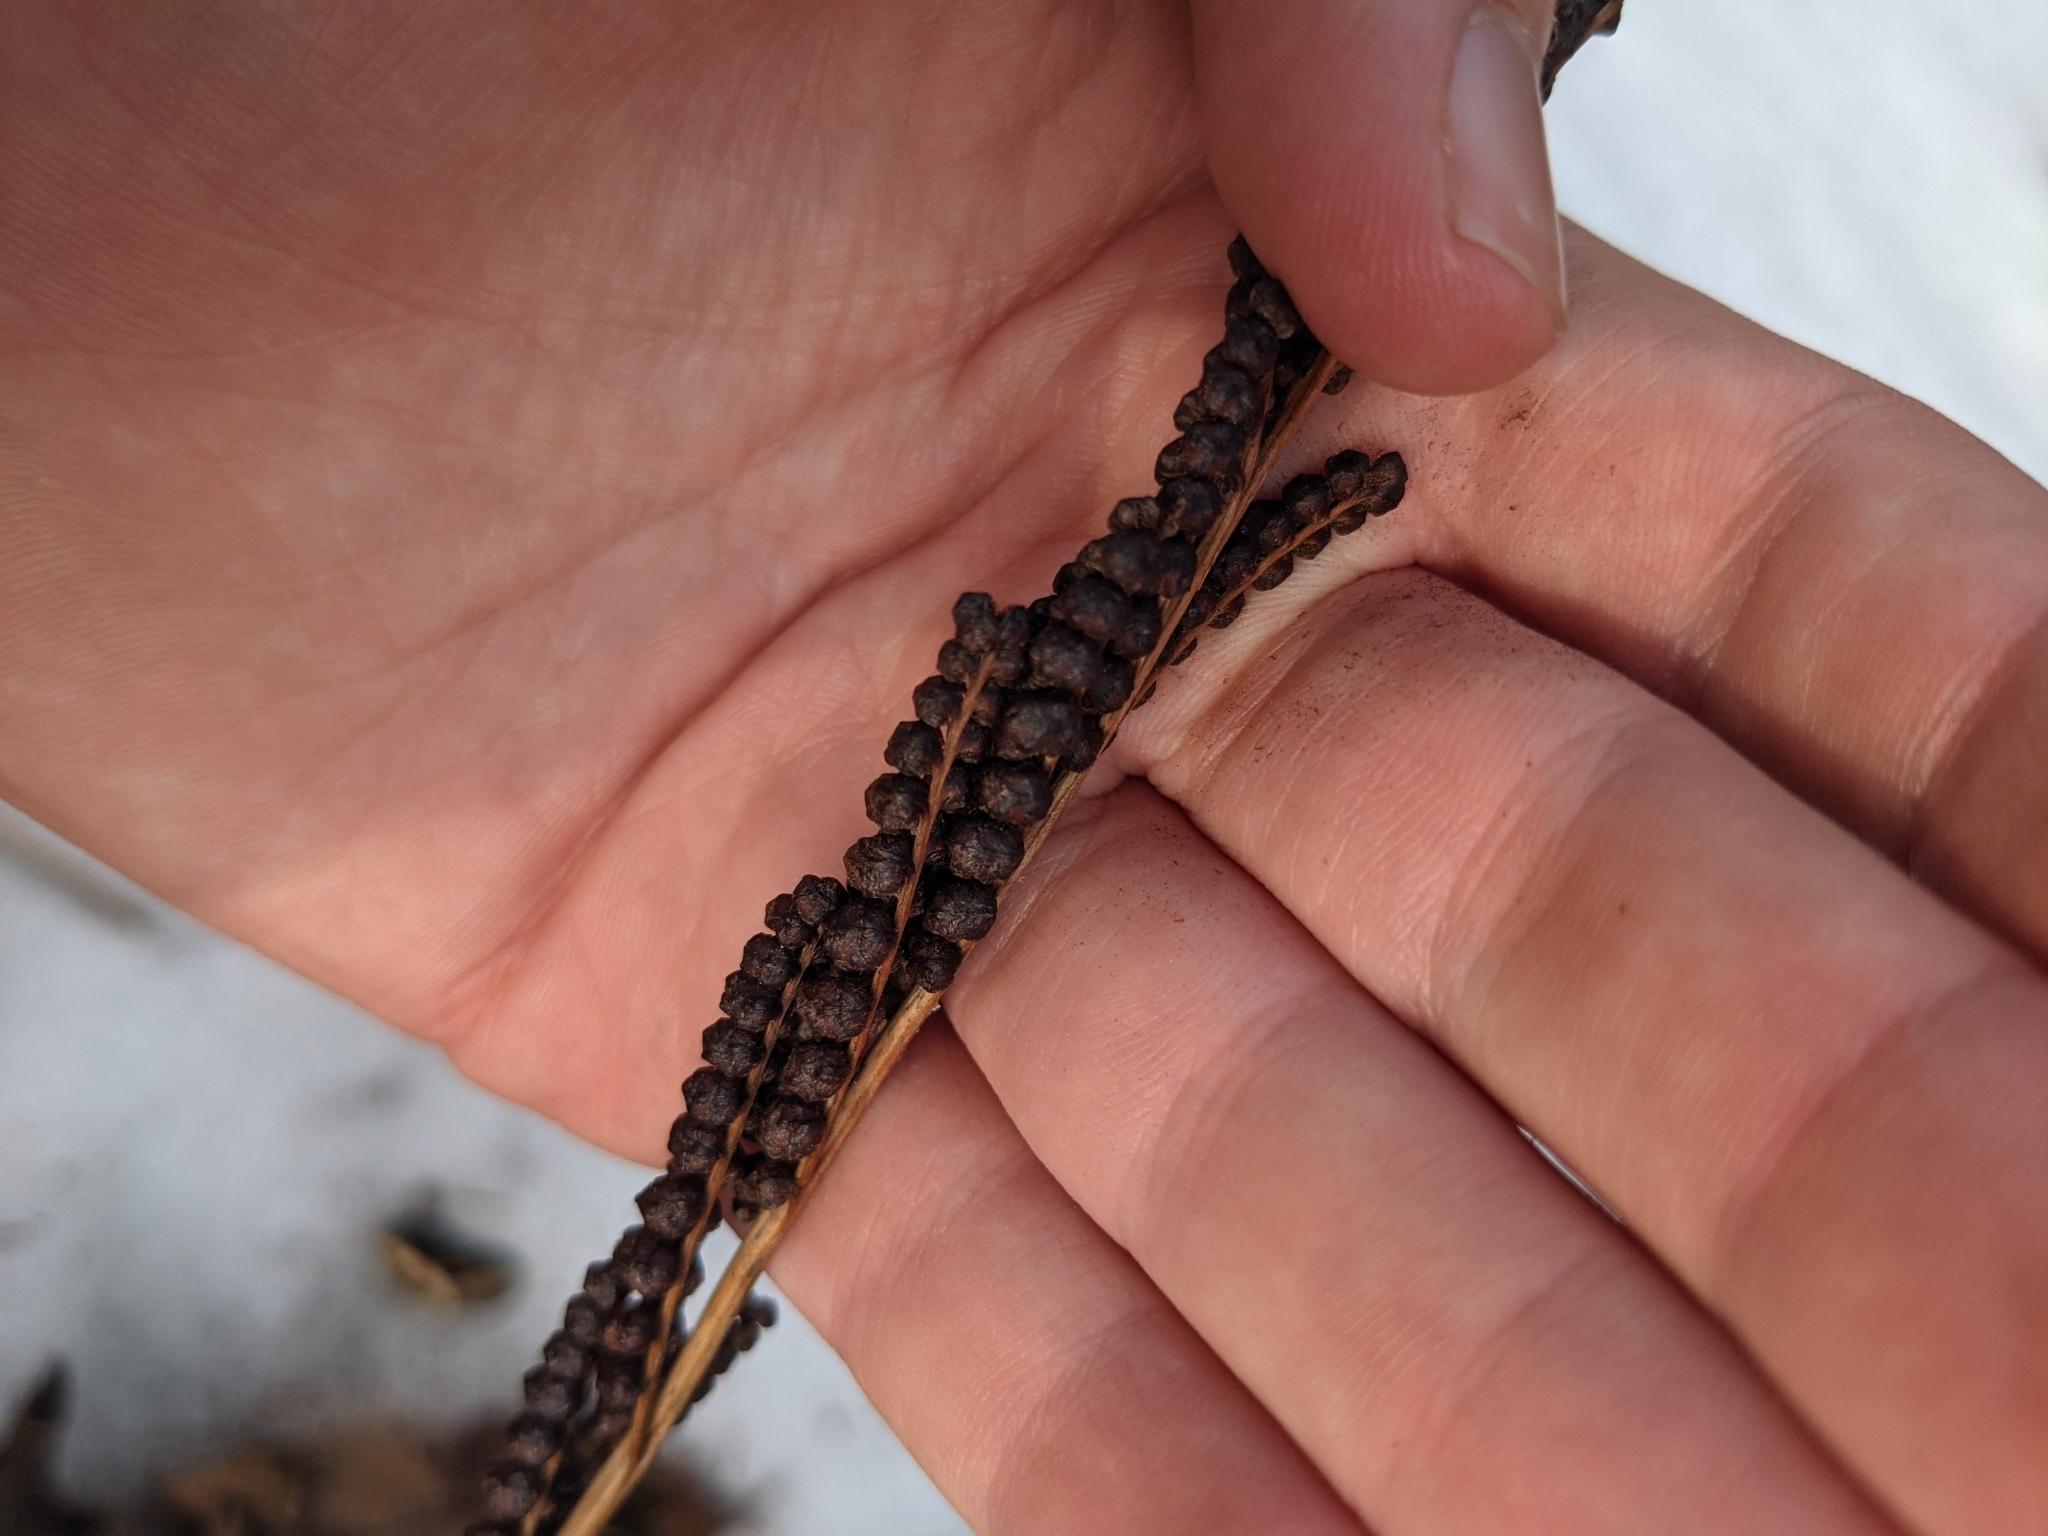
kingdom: Plantae
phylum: Tracheophyta
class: Polypodiopsida
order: Polypodiales
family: Onocleaceae
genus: Onoclea
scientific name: Onoclea sensibilis
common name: Sensitive fern
